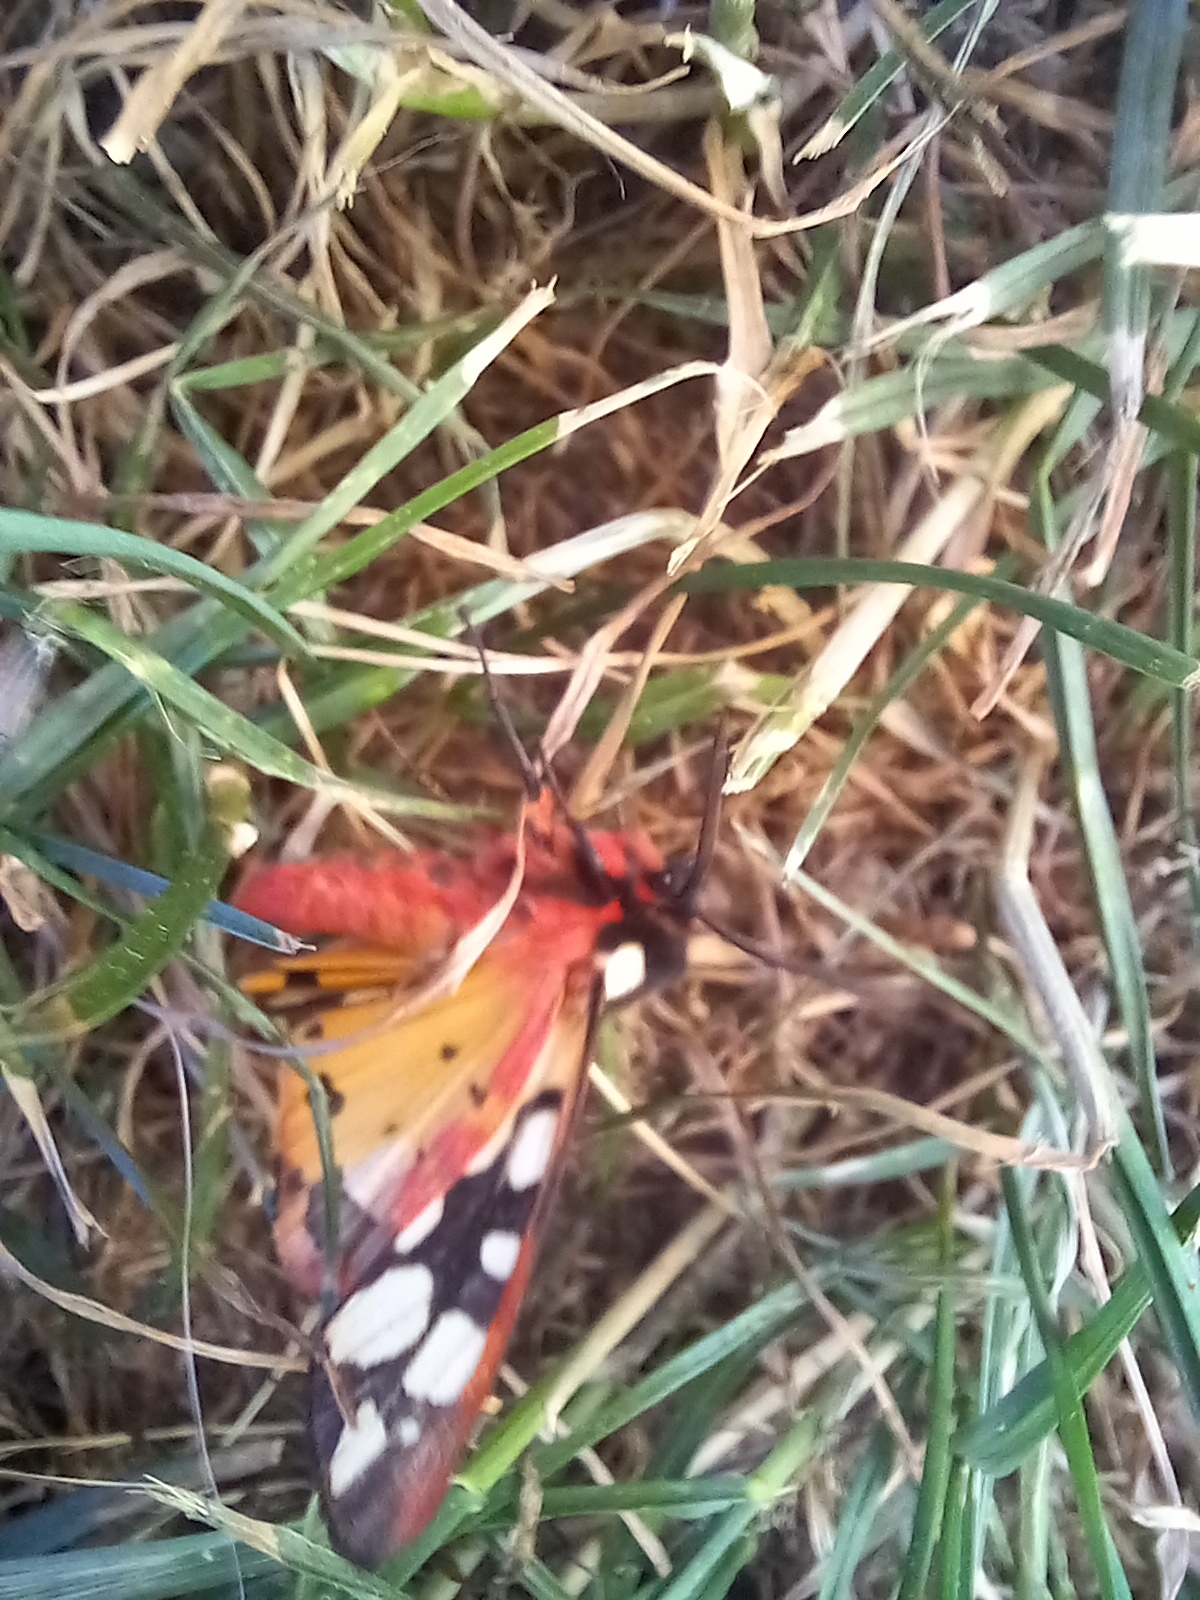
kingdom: Animalia
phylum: Arthropoda
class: Insecta
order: Lepidoptera
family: Erebidae
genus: Epicallia
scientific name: Epicallia villica
